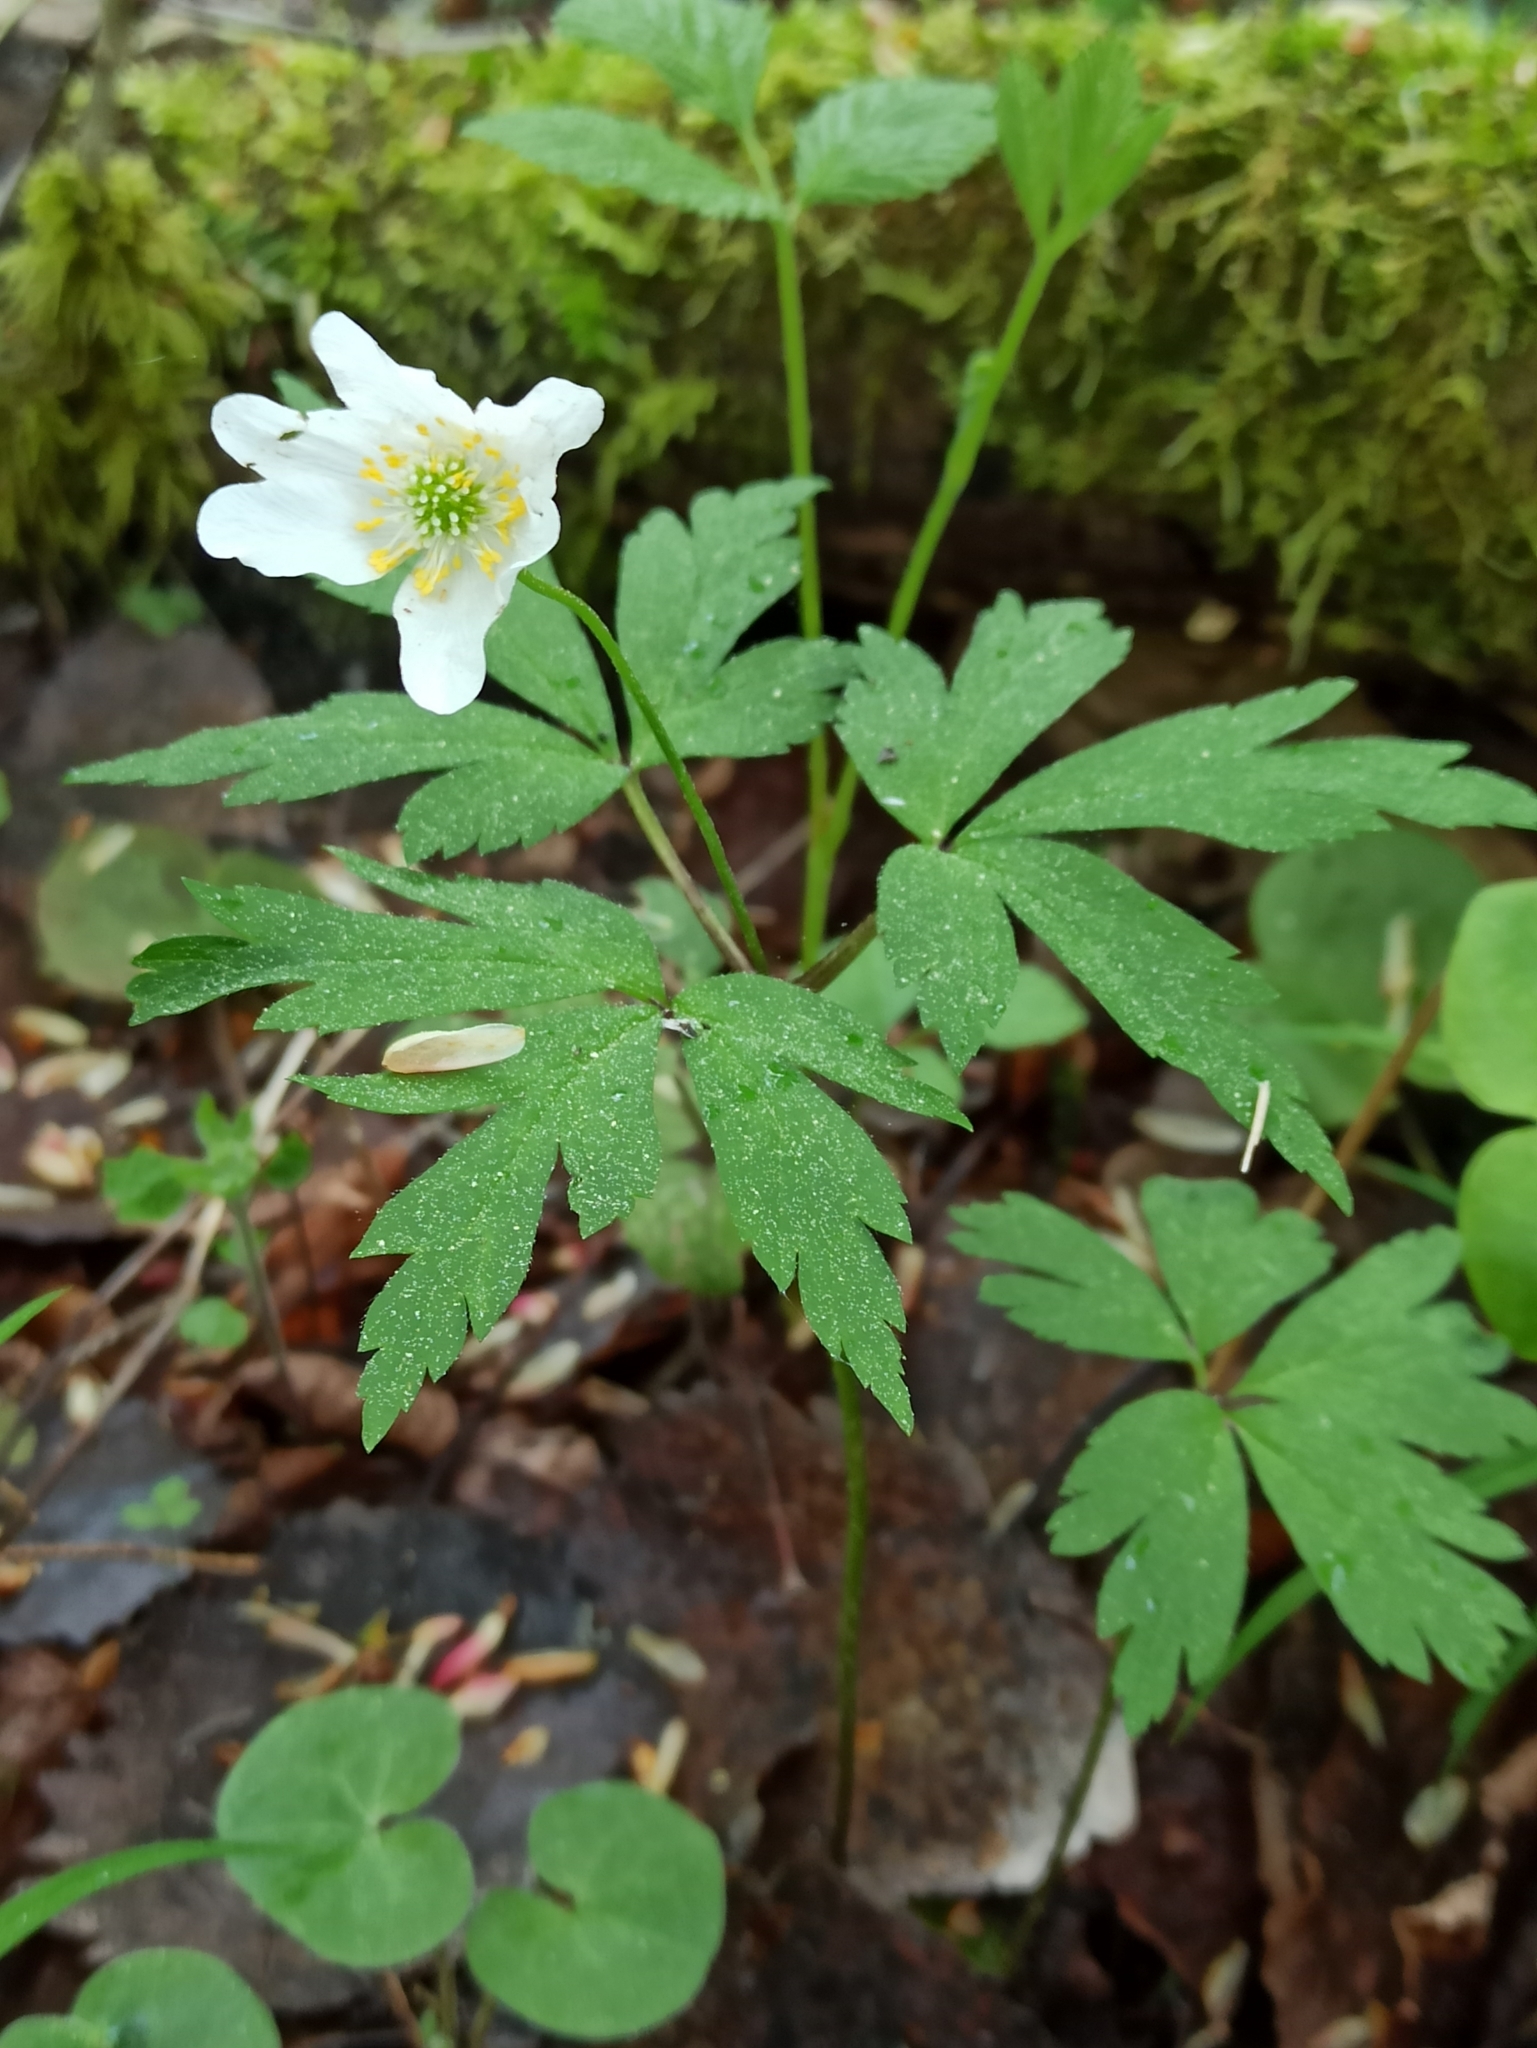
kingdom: Plantae
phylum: Tracheophyta
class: Magnoliopsida
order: Ranunculales
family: Ranunculaceae
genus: Anemone
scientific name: Anemone nemorosa
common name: Wood anemone
